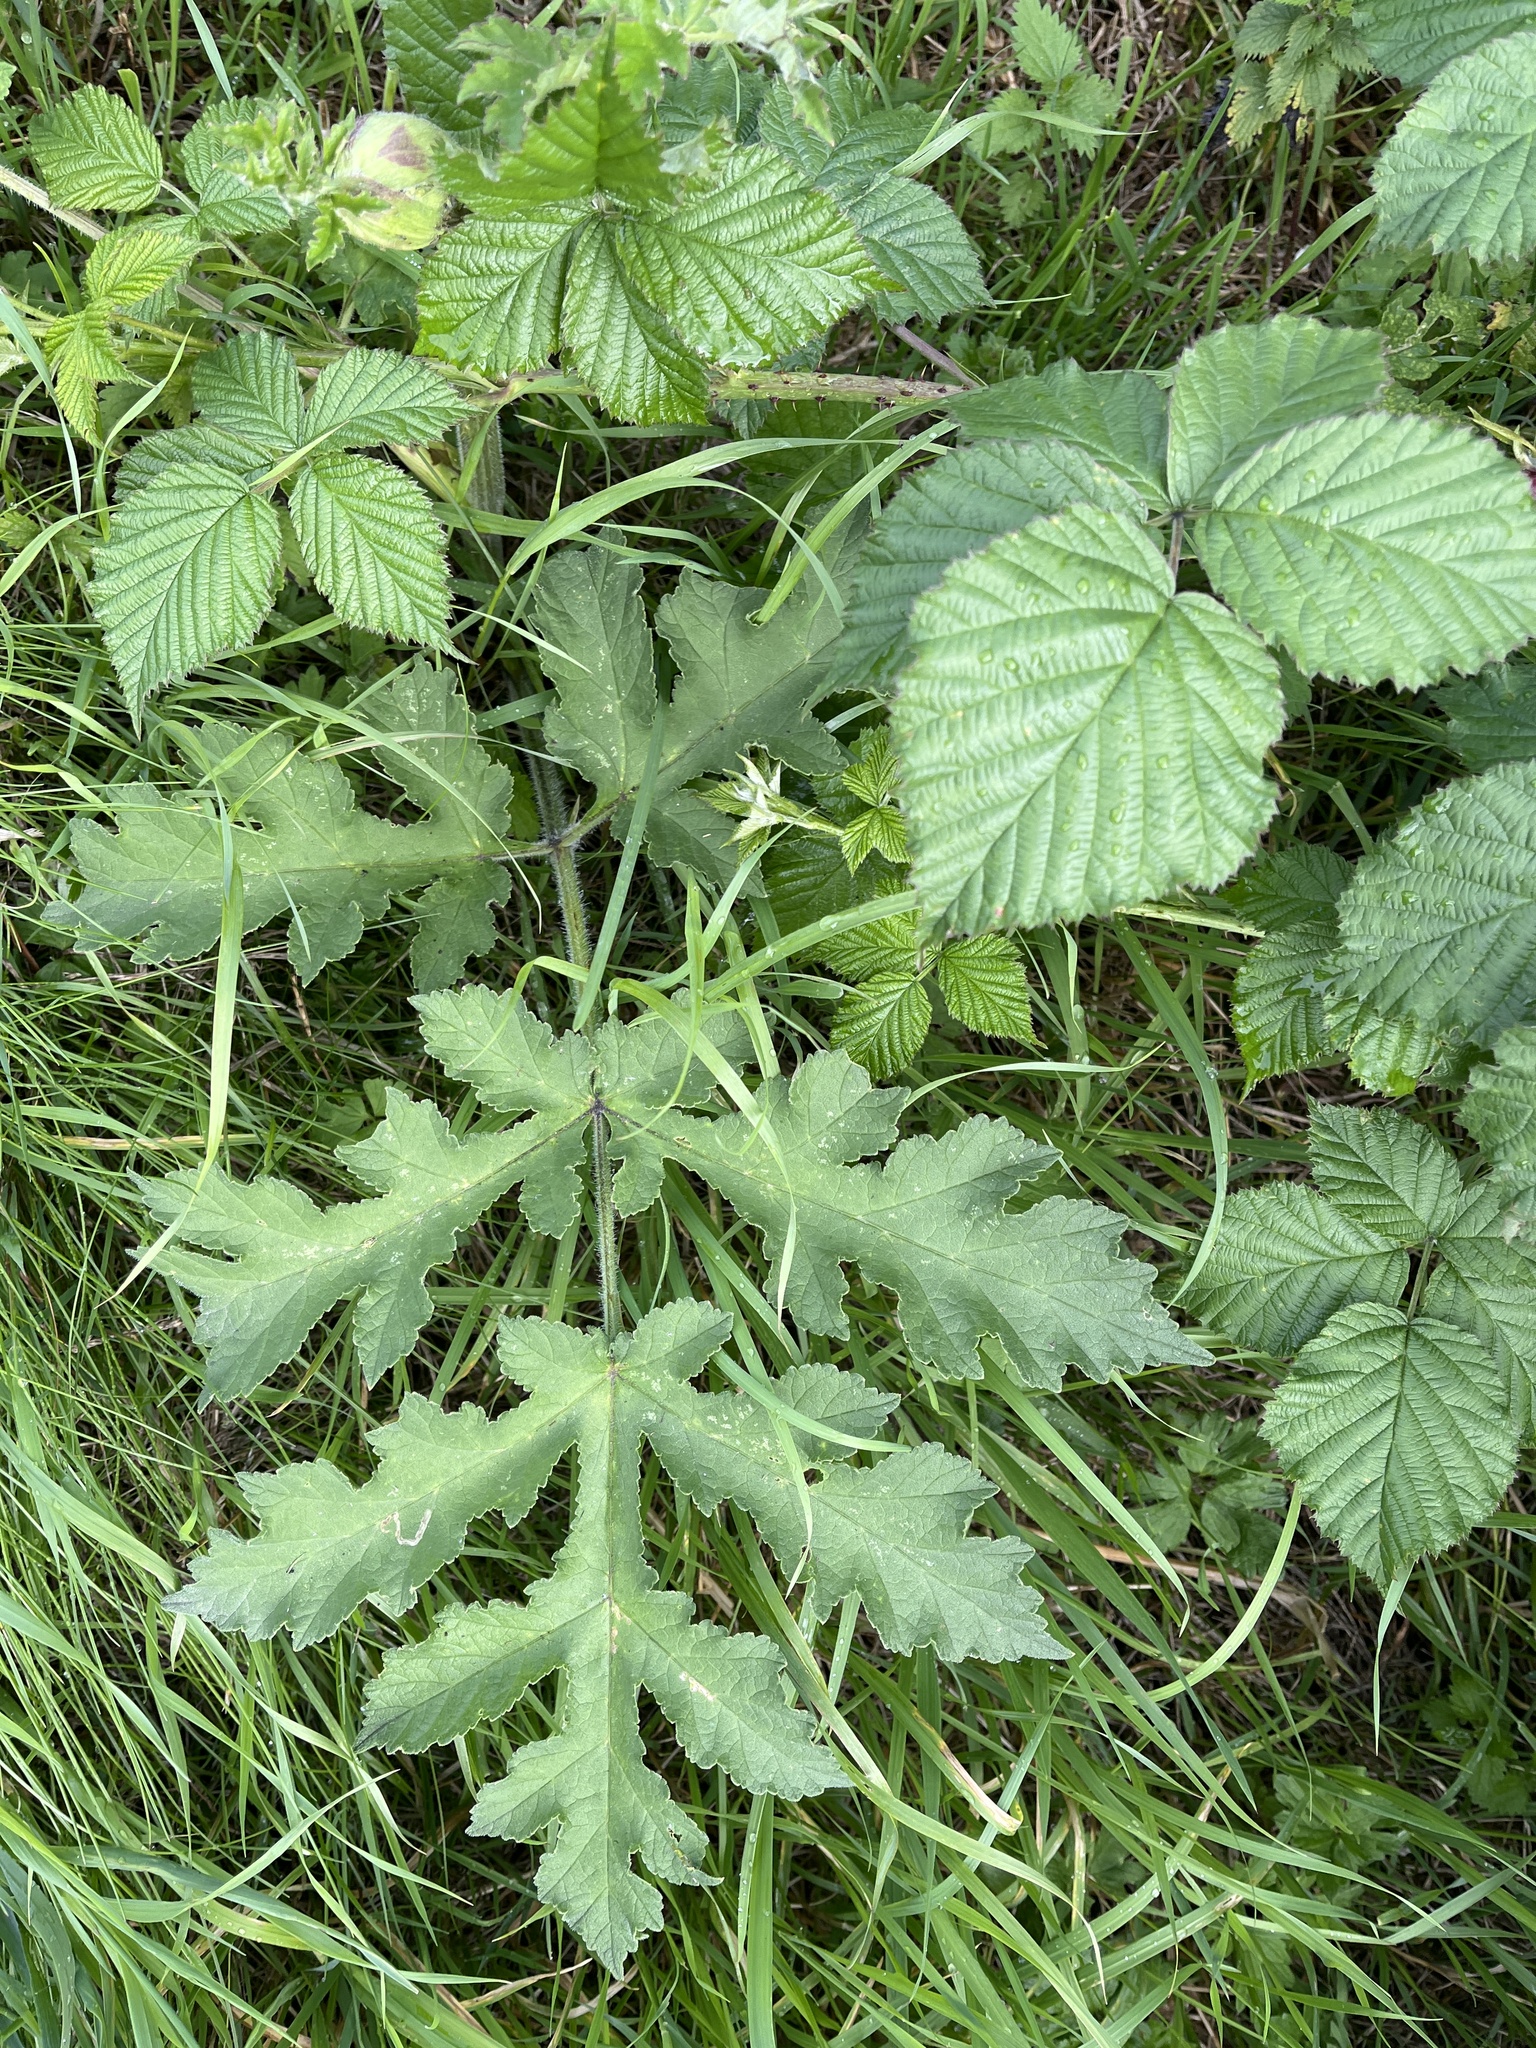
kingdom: Plantae
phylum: Tracheophyta
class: Magnoliopsida
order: Apiales
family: Apiaceae
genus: Heracleum
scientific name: Heracleum sphondylium
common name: Hogweed
